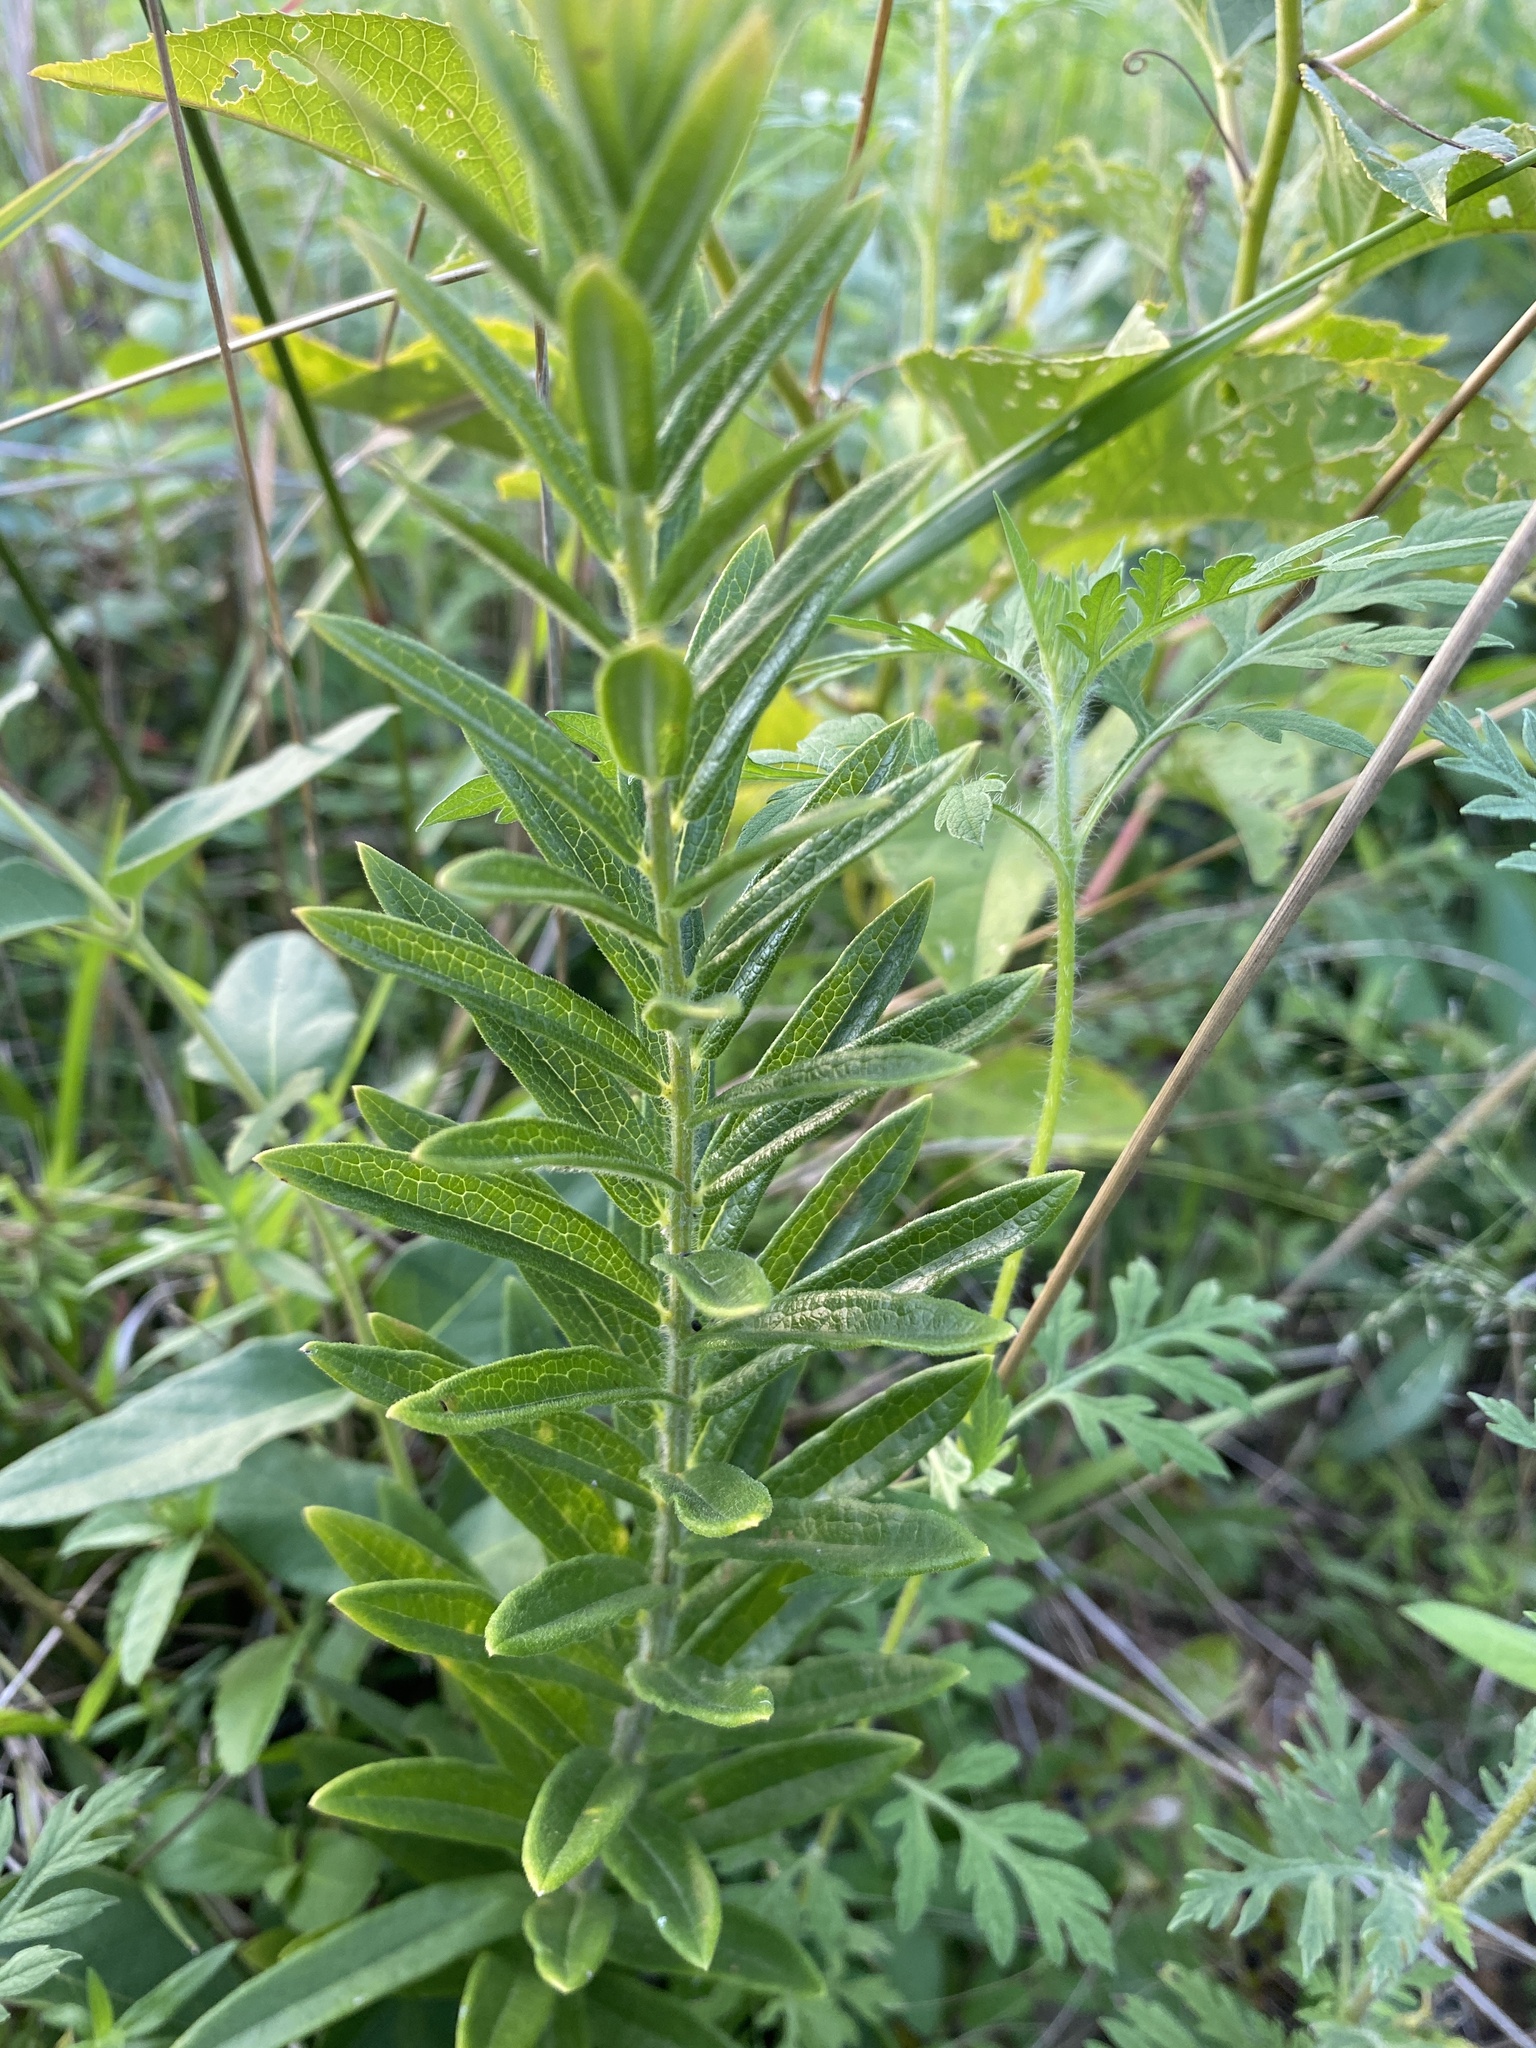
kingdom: Plantae
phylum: Tracheophyta
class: Magnoliopsida
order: Gentianales
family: Apocynaceae
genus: Asclepias
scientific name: Asclepias tuberosa
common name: Butterfly milkweed
